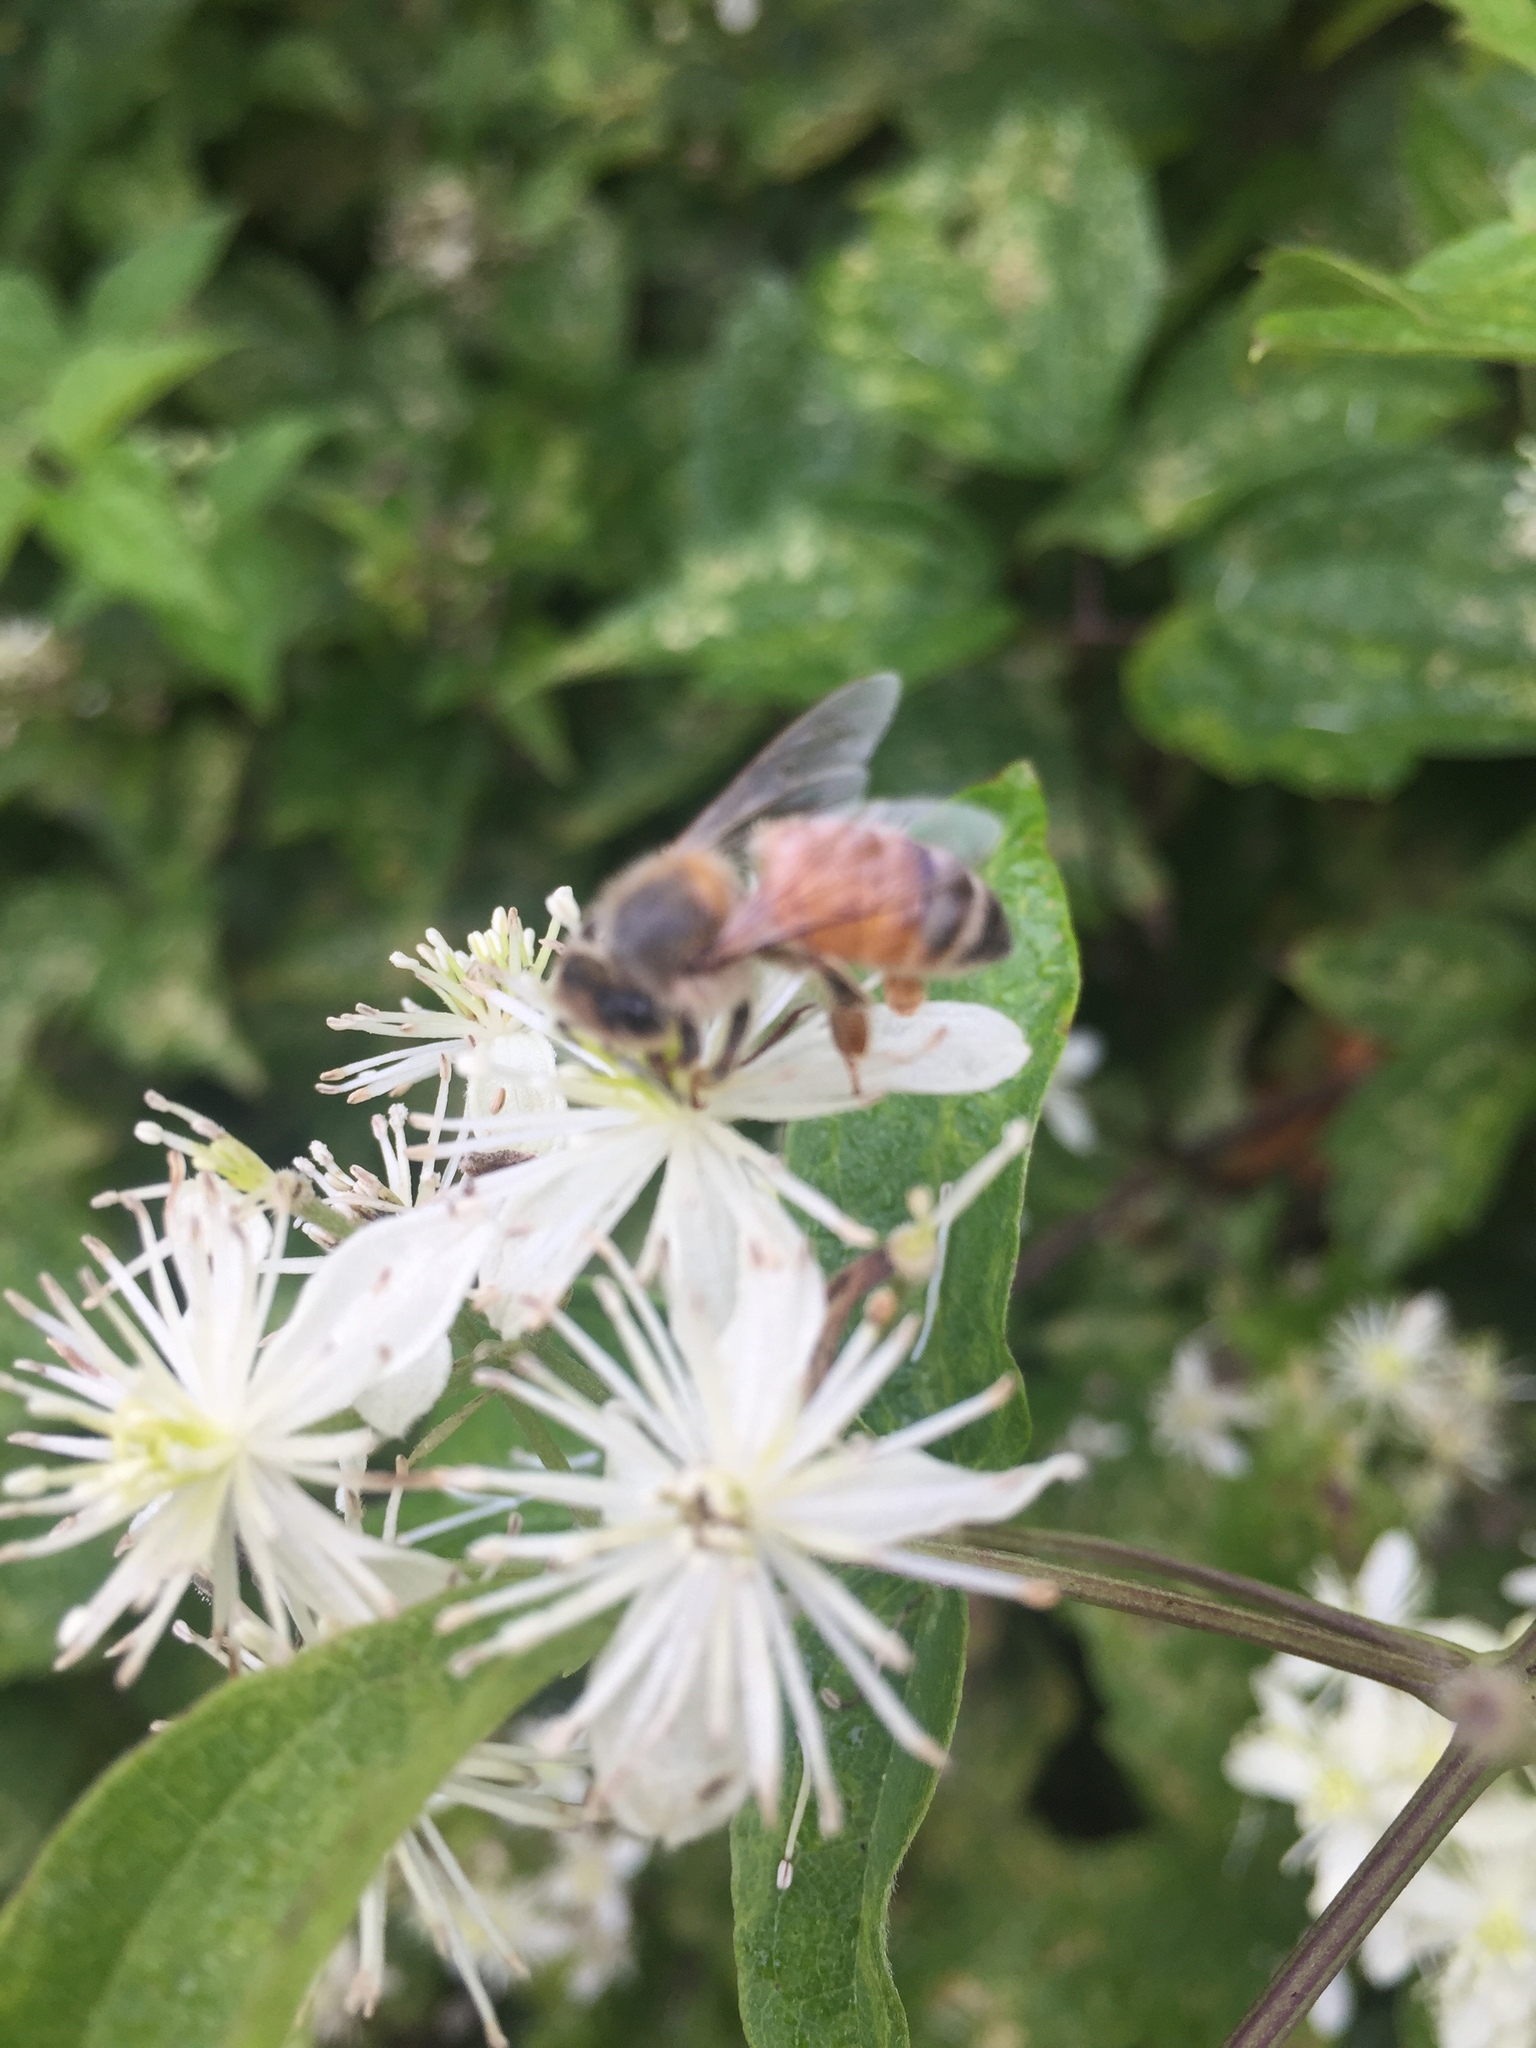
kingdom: Animalia
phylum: Arthropoda
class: Insecta
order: Hymenoptera
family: Apidae
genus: Apis
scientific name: Apis mellifera
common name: Honey bee
